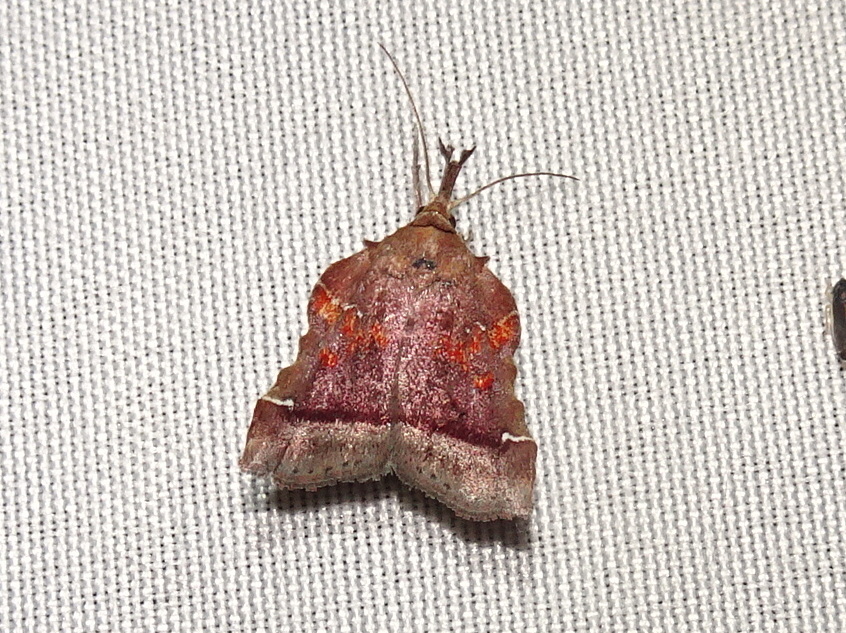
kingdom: Animalia
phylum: Arthropoda
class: Insecta
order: Lepidoptera
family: Pyralidae
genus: Clydonopteron
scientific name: Clydonopteron sacculana
